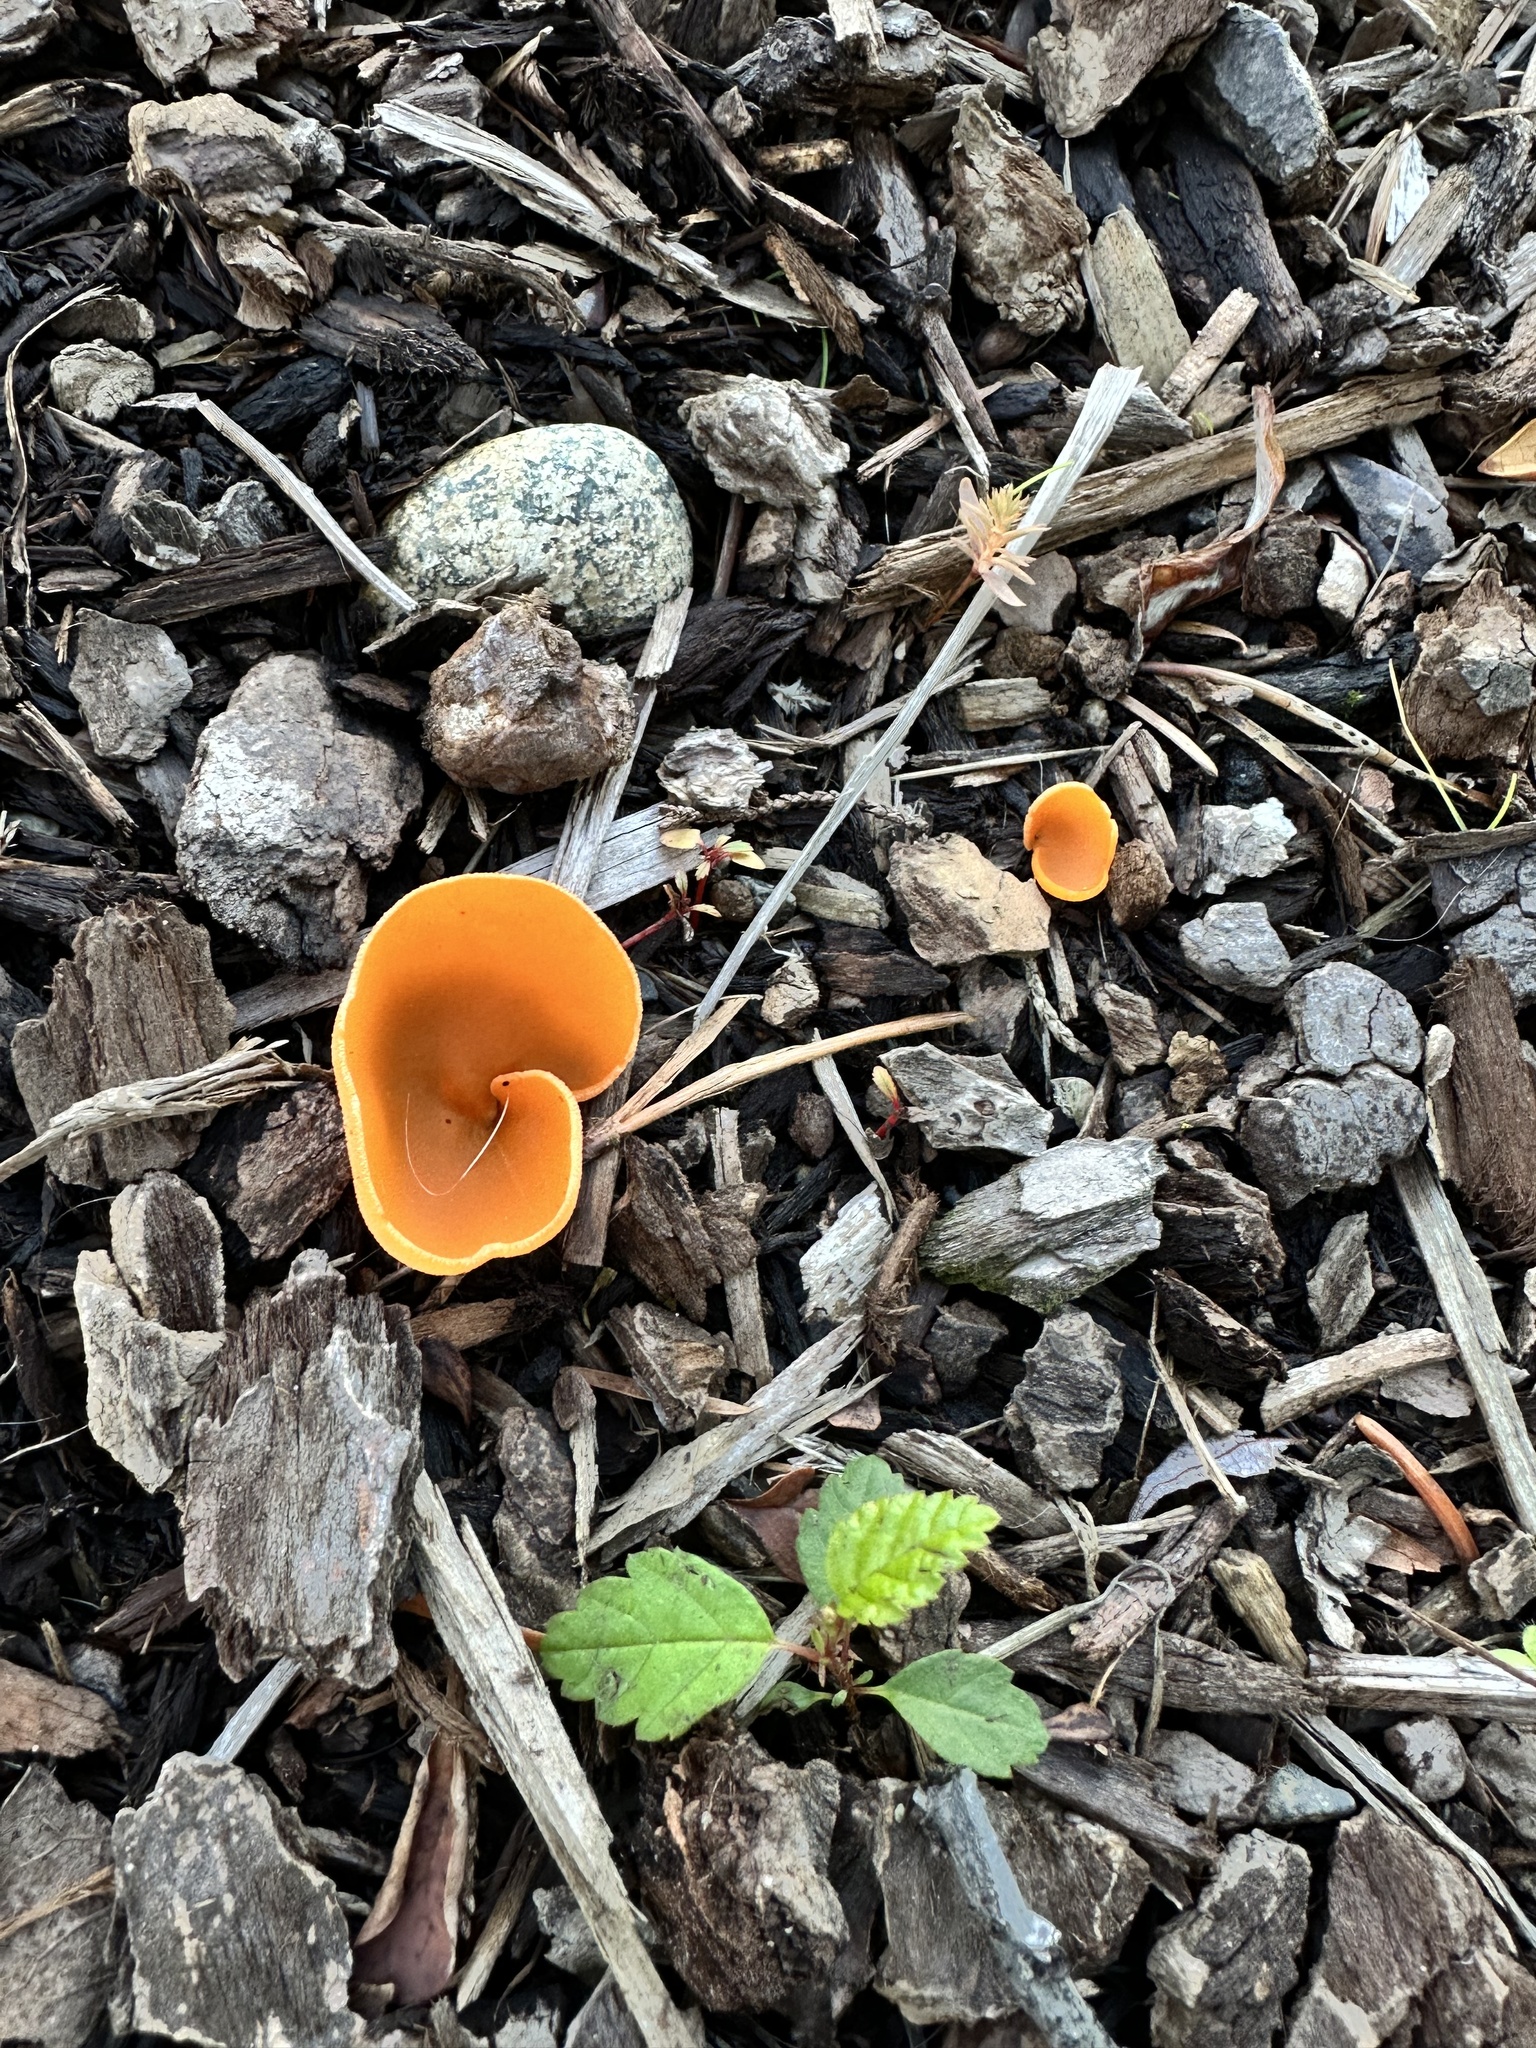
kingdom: Fungi
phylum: Ascomycota
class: Pezizomycetes
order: Pezizales
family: Pyronemataceae
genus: Aleuria
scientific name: Aleuria aurantia
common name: Orange peel fungus
